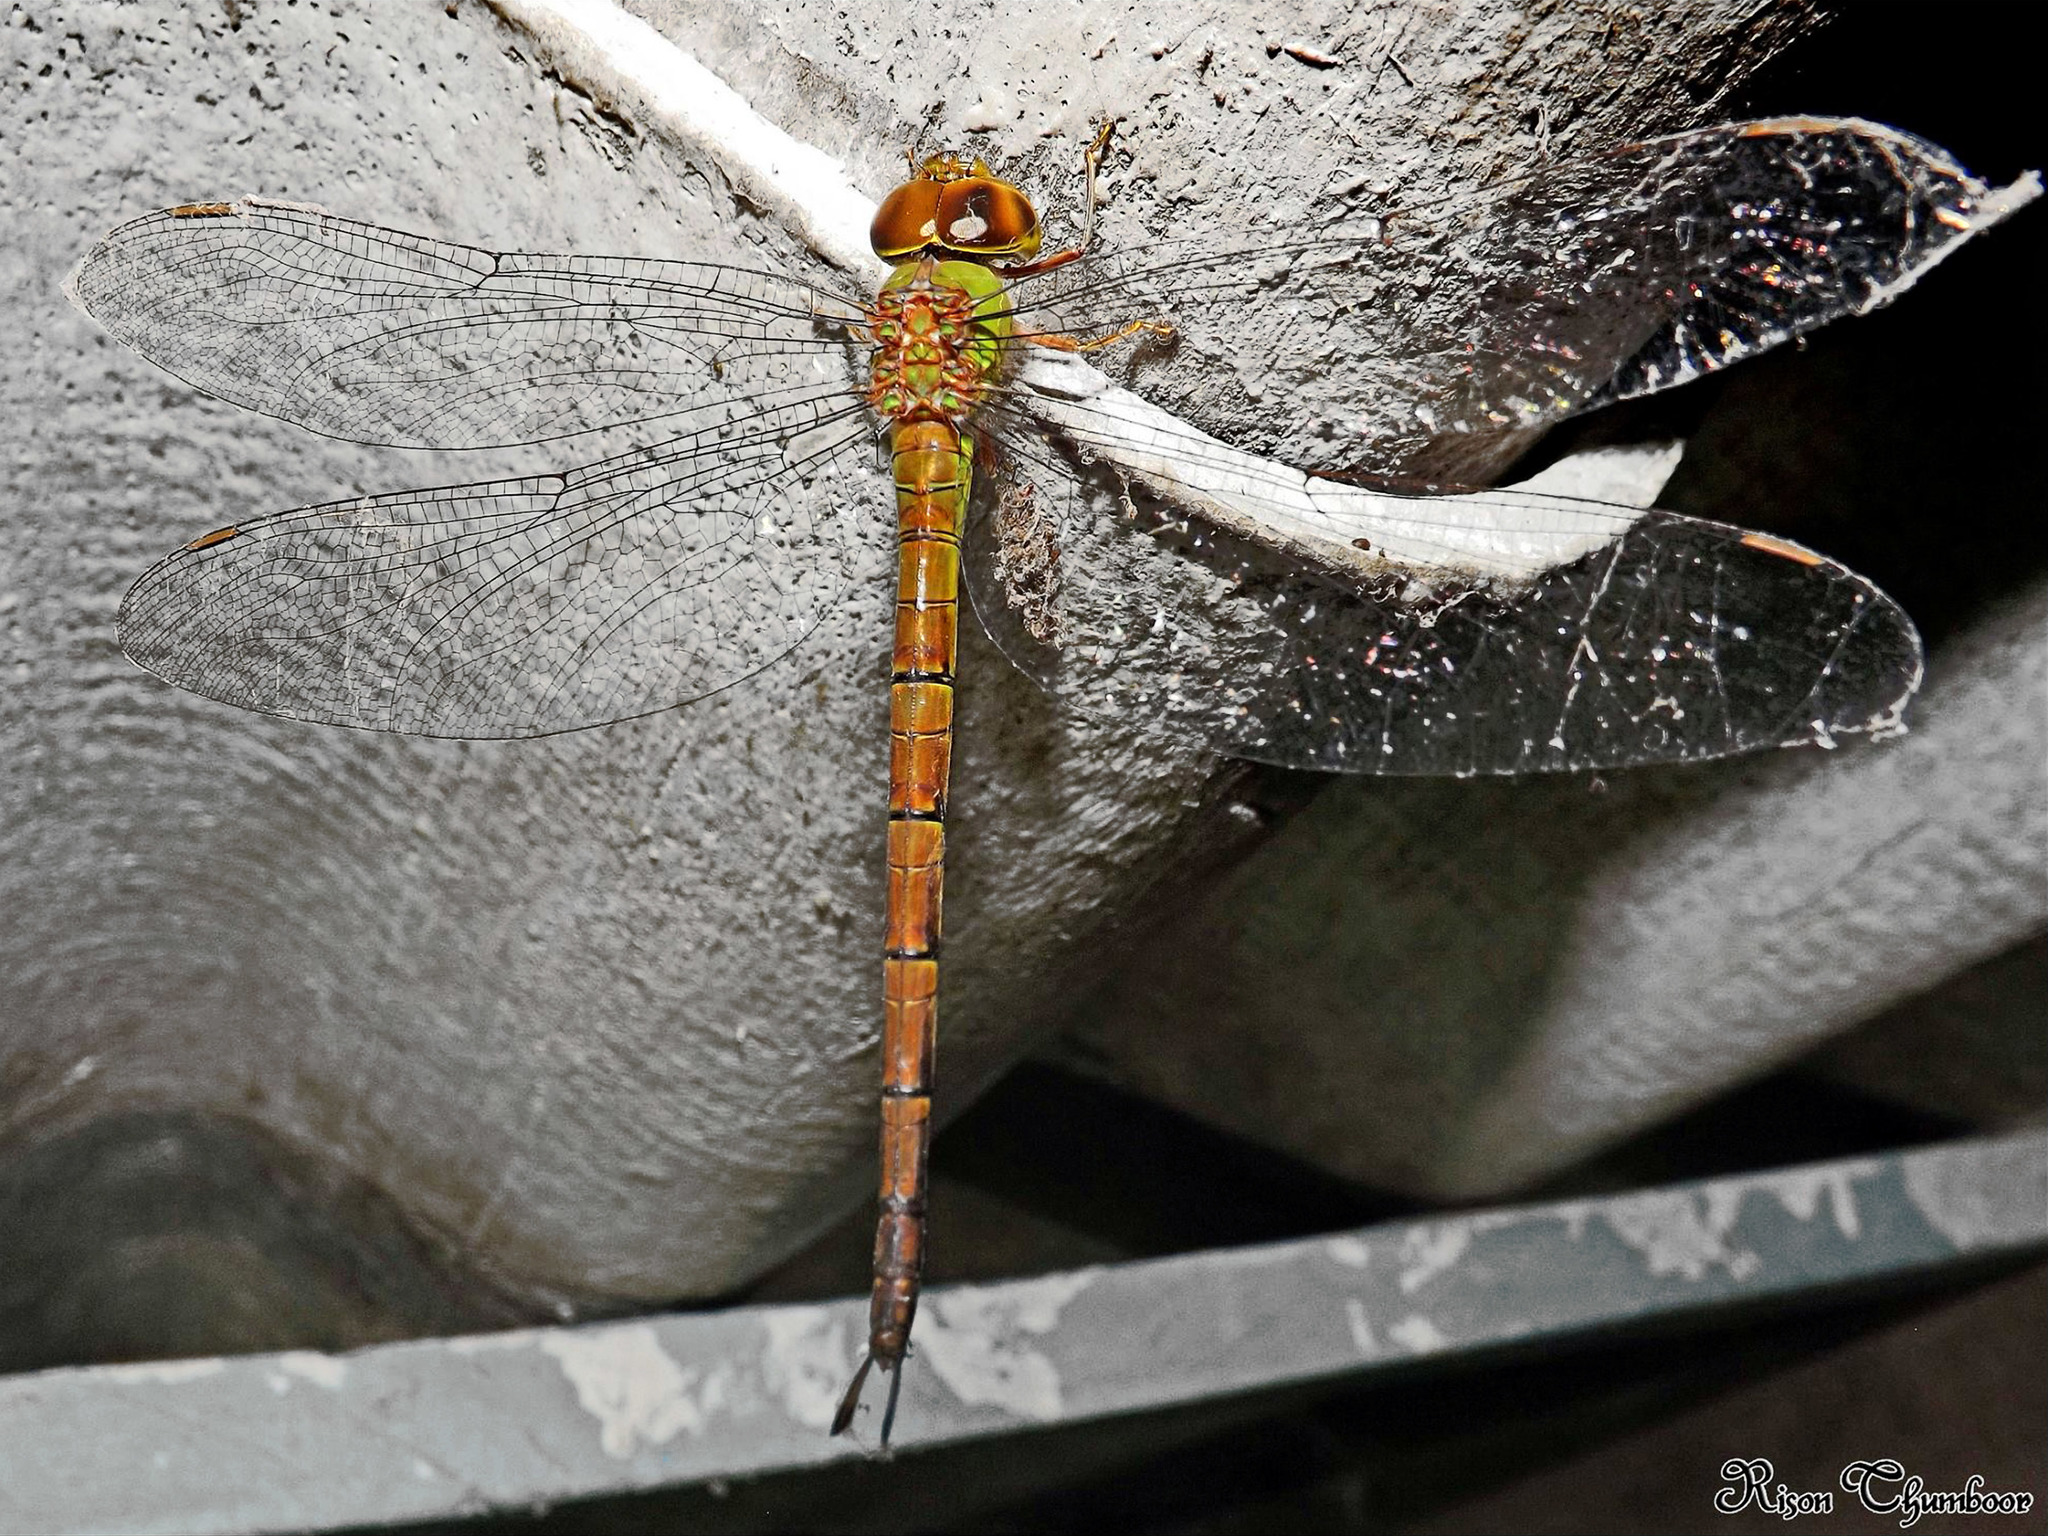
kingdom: Animalia
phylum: Arthropoda
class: Insecta
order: Odonata
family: Aeshnidae
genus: Gynacantha
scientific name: Gynacantha bayadera
